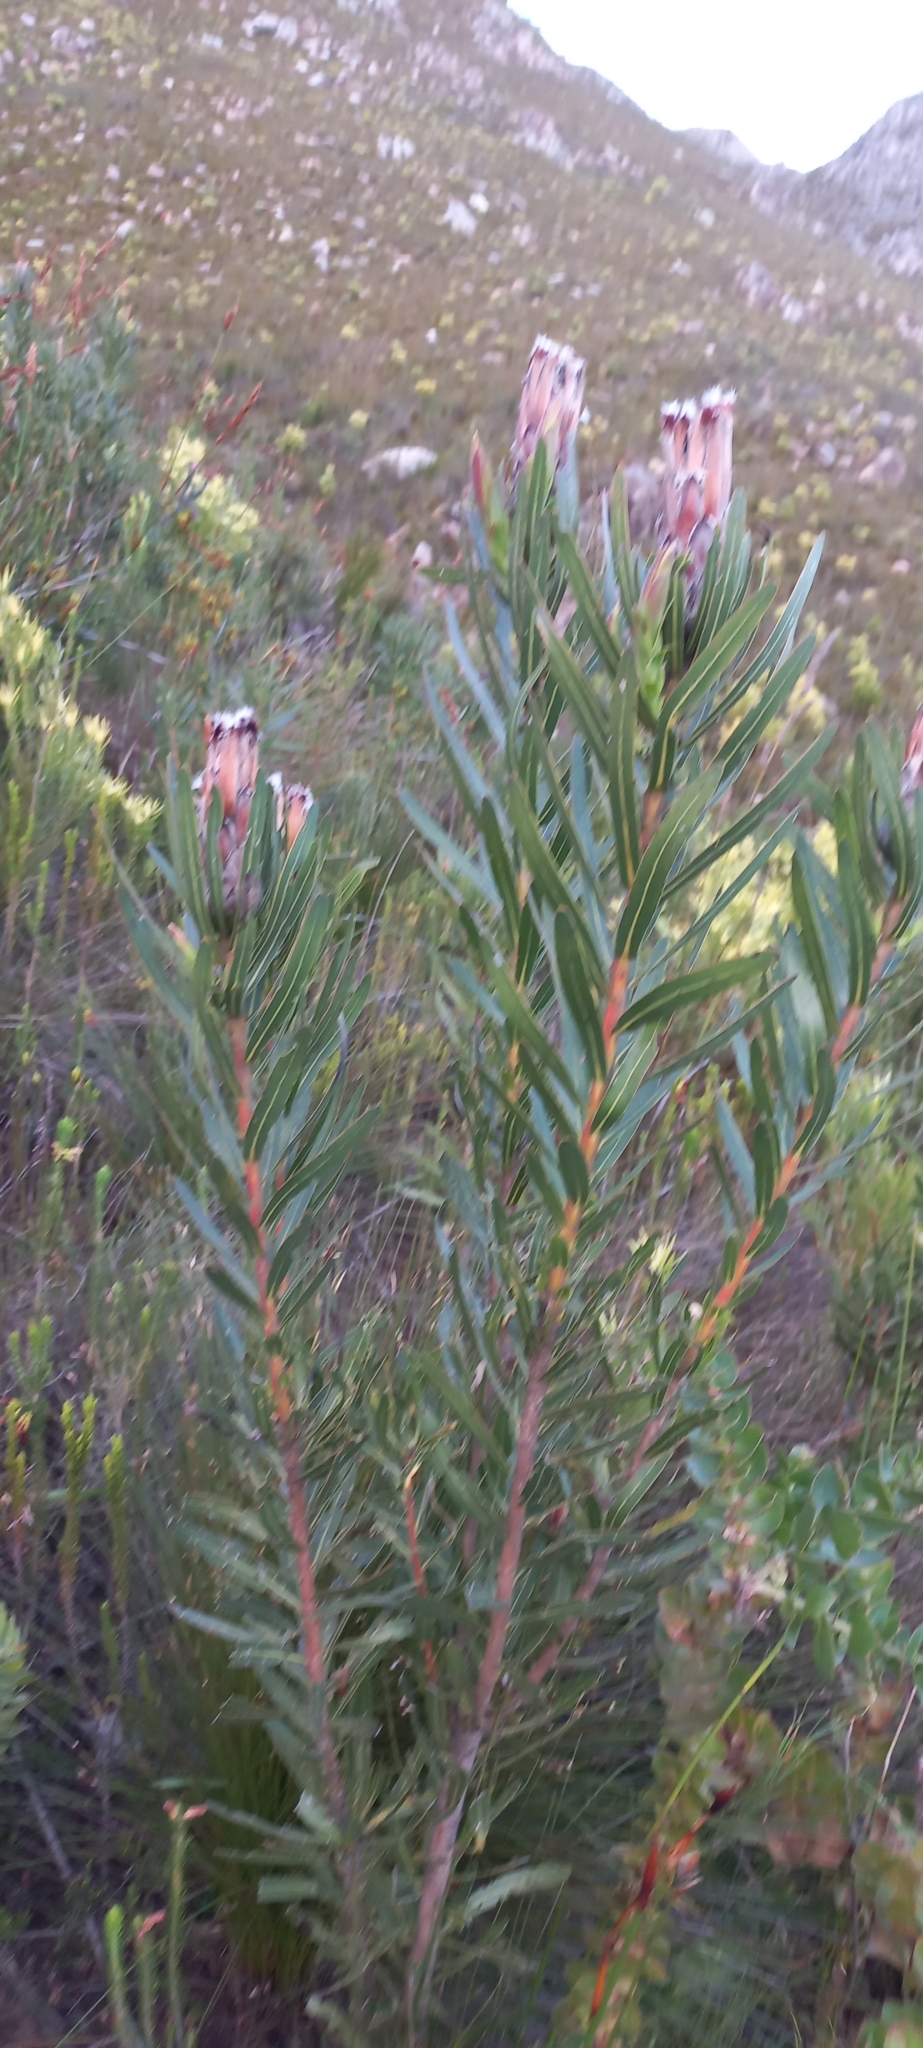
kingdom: Plantae
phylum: Tracheophyta
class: Magnoliopsida
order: Proteales
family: Proteaceae
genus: Protea
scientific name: Protea lepidocarpodendron
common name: Black-bearded protea
